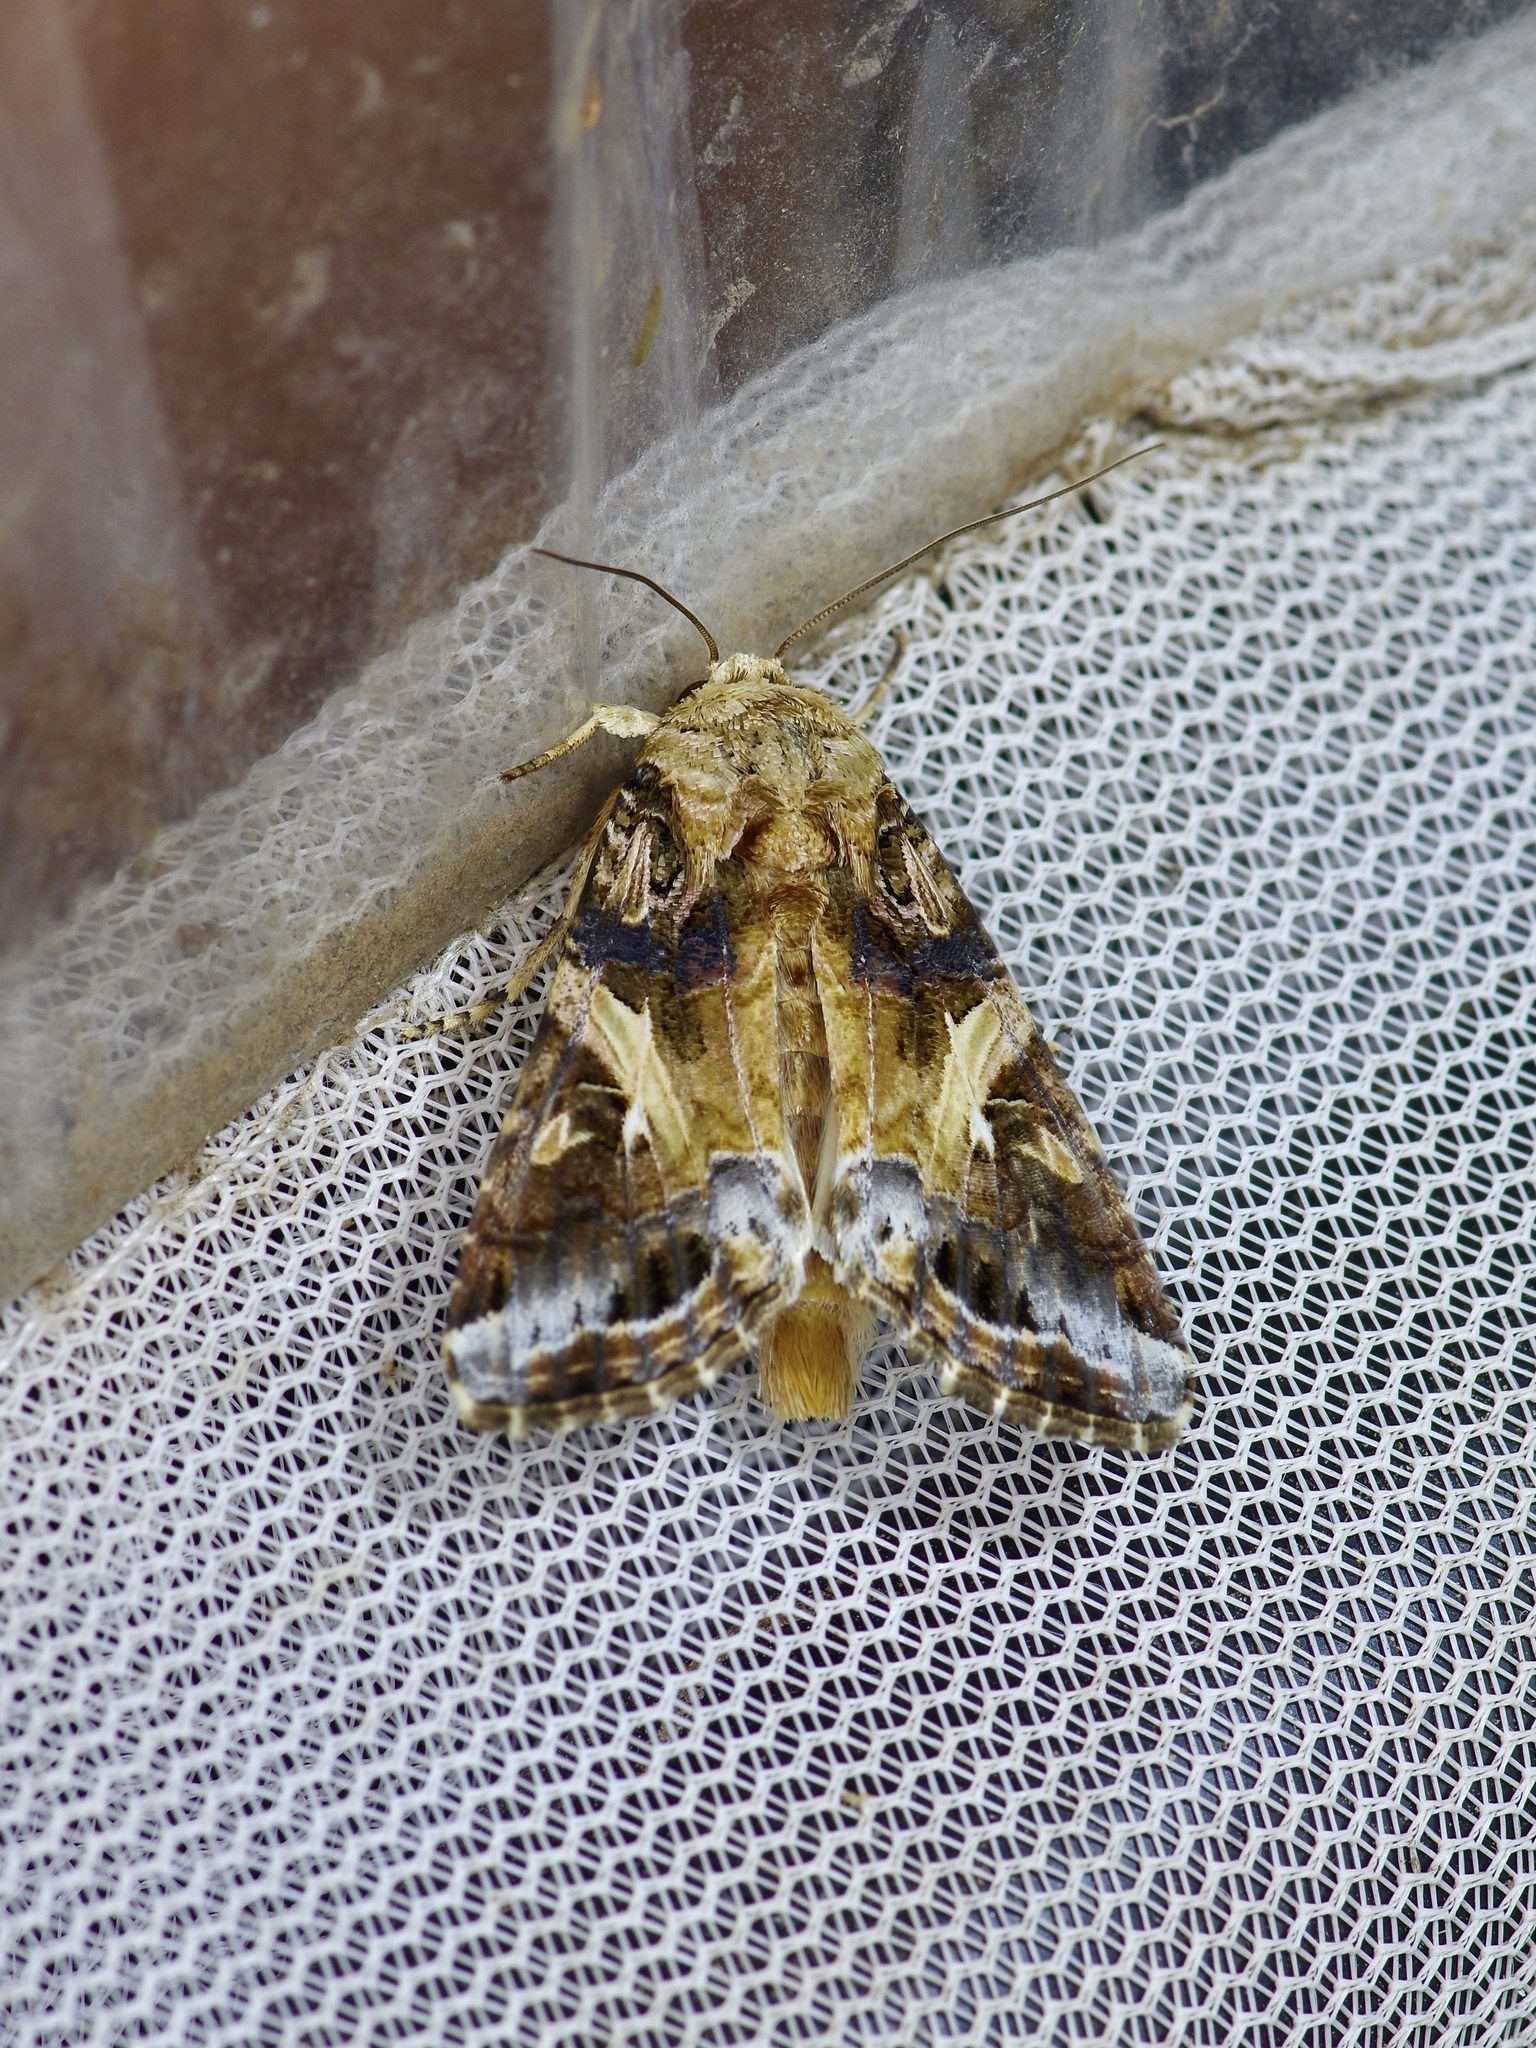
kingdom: Animalia
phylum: Arthropoda
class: Insecta
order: Lepidoptera
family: Noctuidae
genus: Spodoptera
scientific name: Spodoptera ornithogalli
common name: Yellow-striped armyworm
